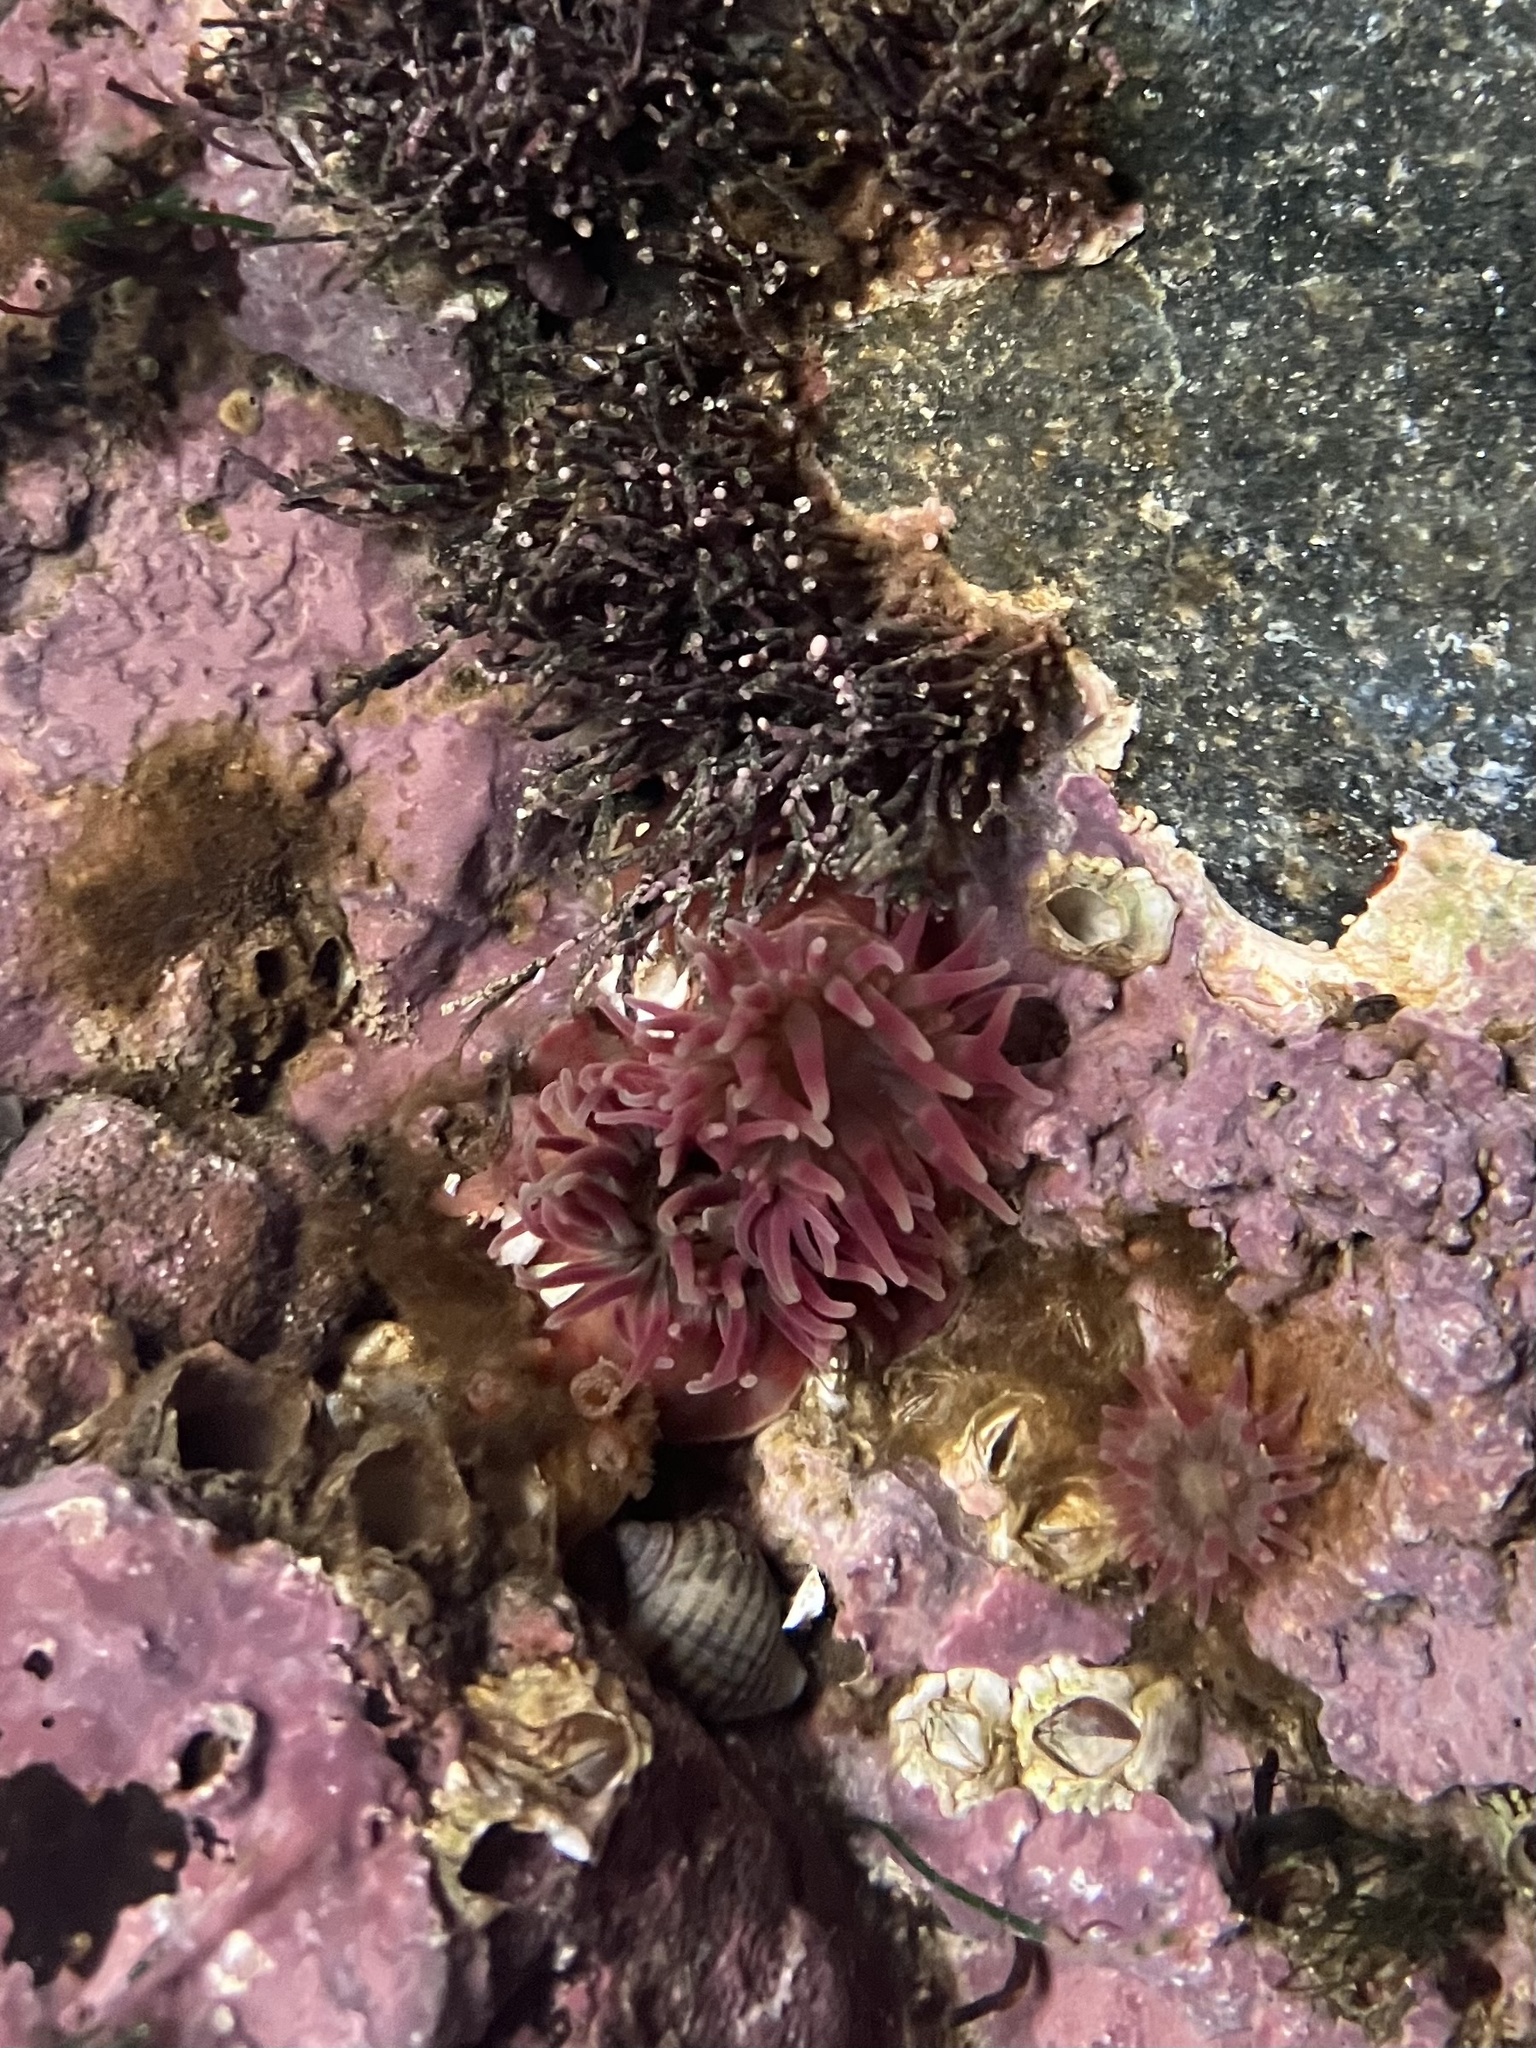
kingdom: Animalia
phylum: Cnidaria
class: Anthozoa
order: Actiniaria
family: Actiniidae
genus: Urticina
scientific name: Urticina crassicornis
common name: Mottled anemone
